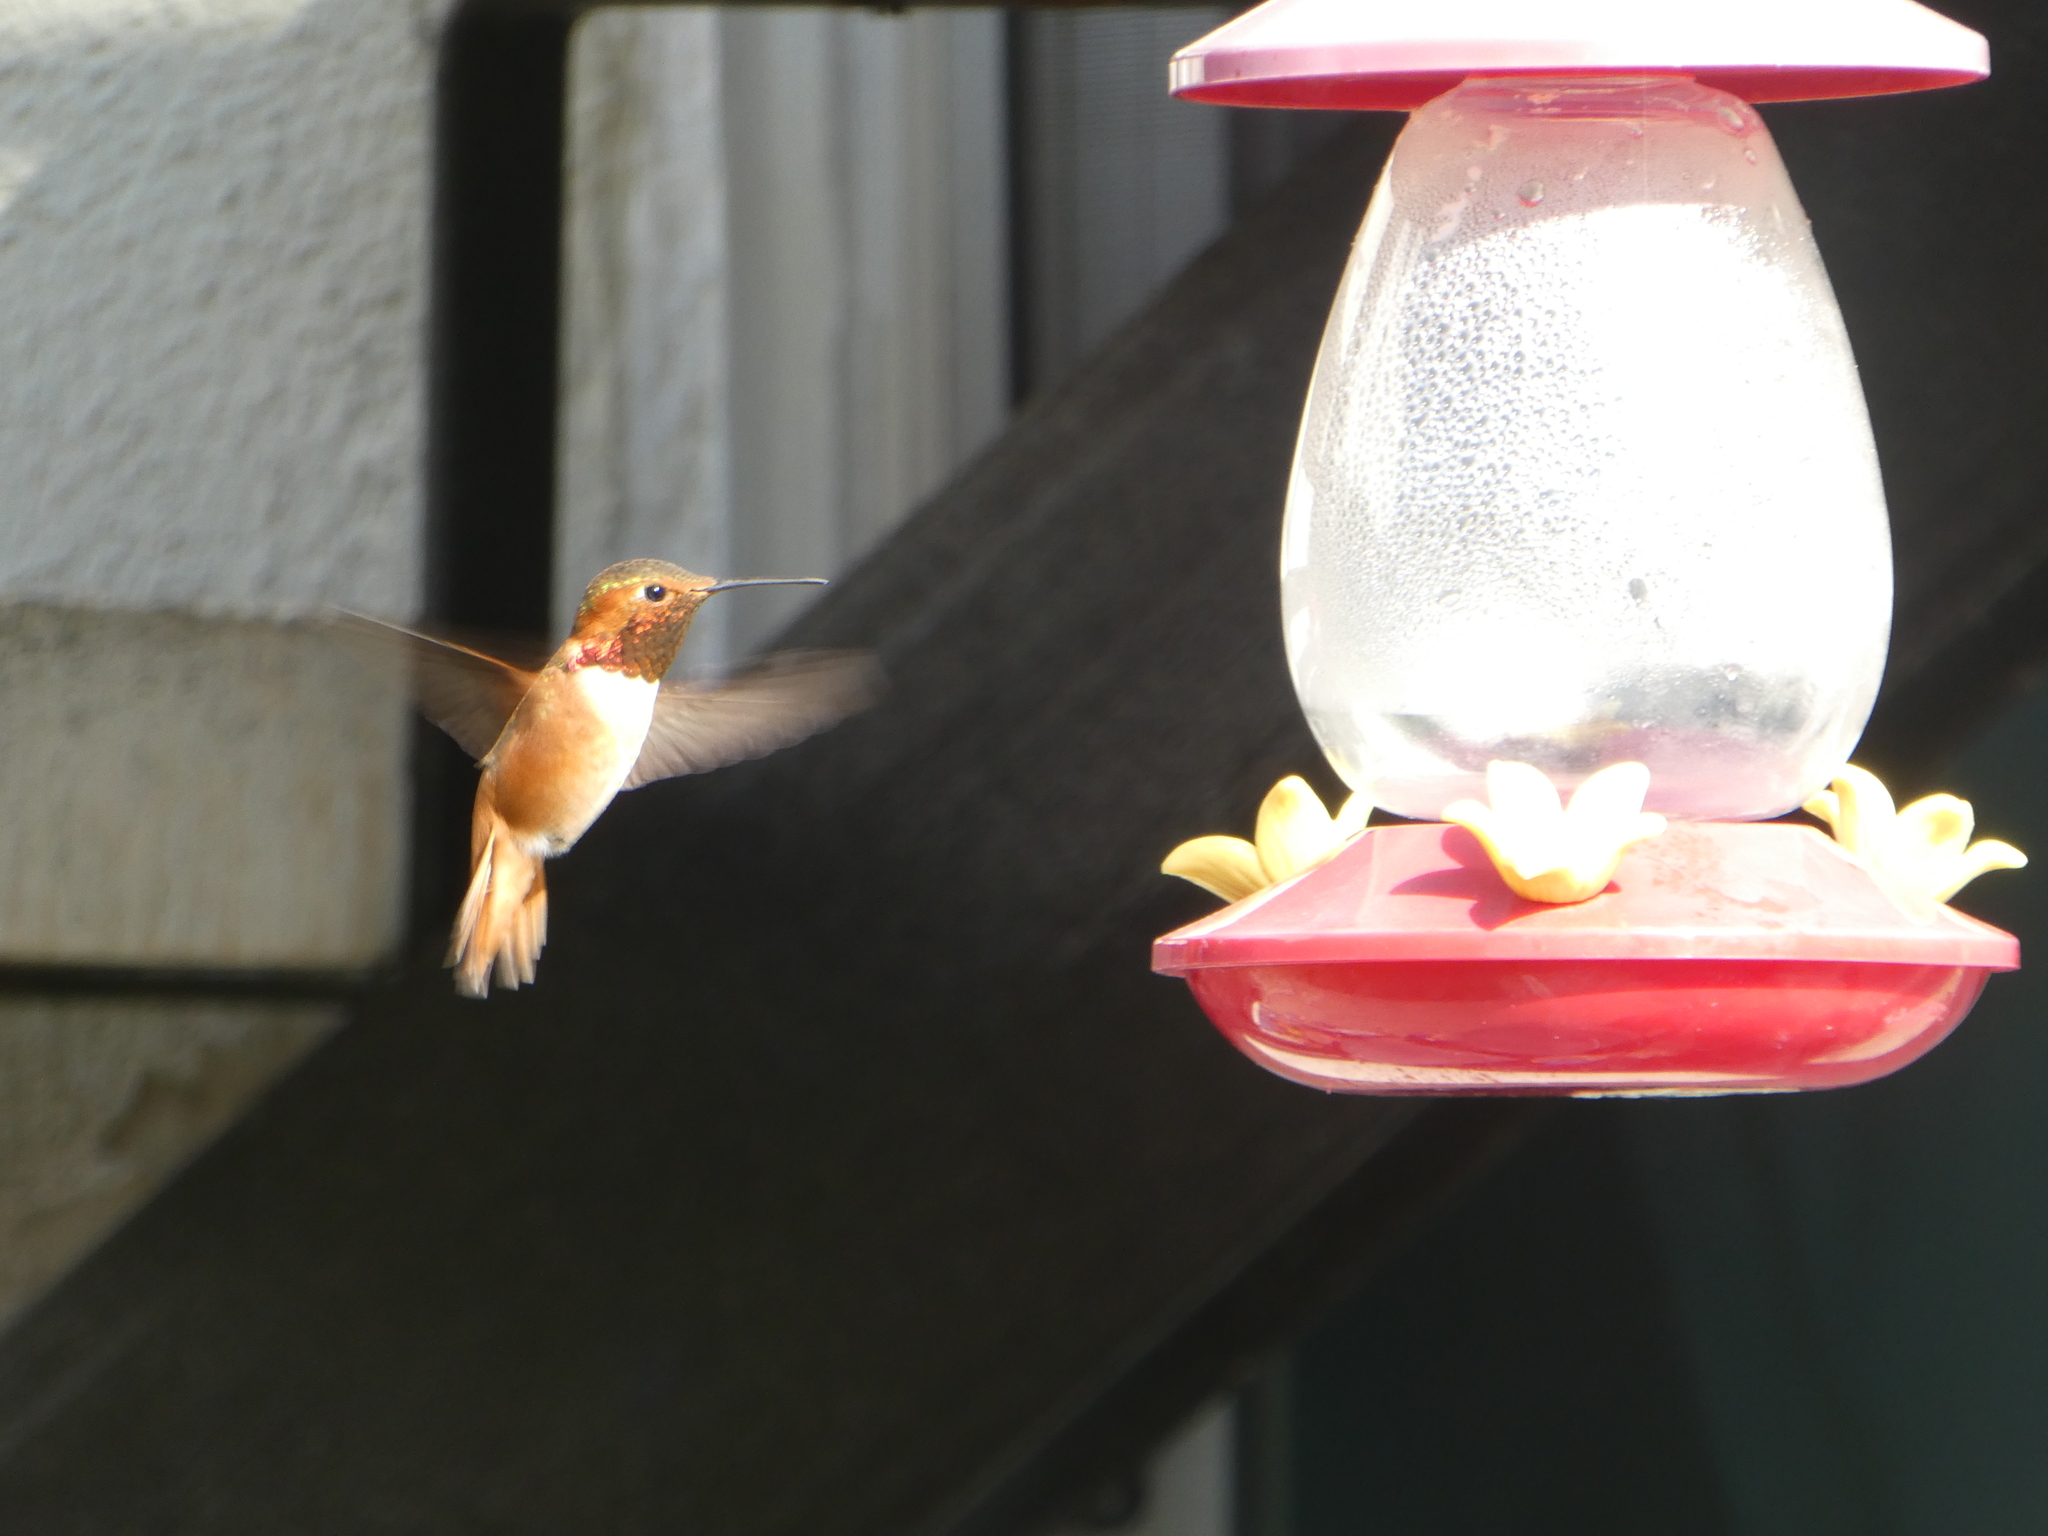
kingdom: Animalia
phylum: Chordata
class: Aves
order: Apodiformes
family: Trochilidae
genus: Selasphorus
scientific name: Selasphorus sasin
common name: Allen's hummingbird
